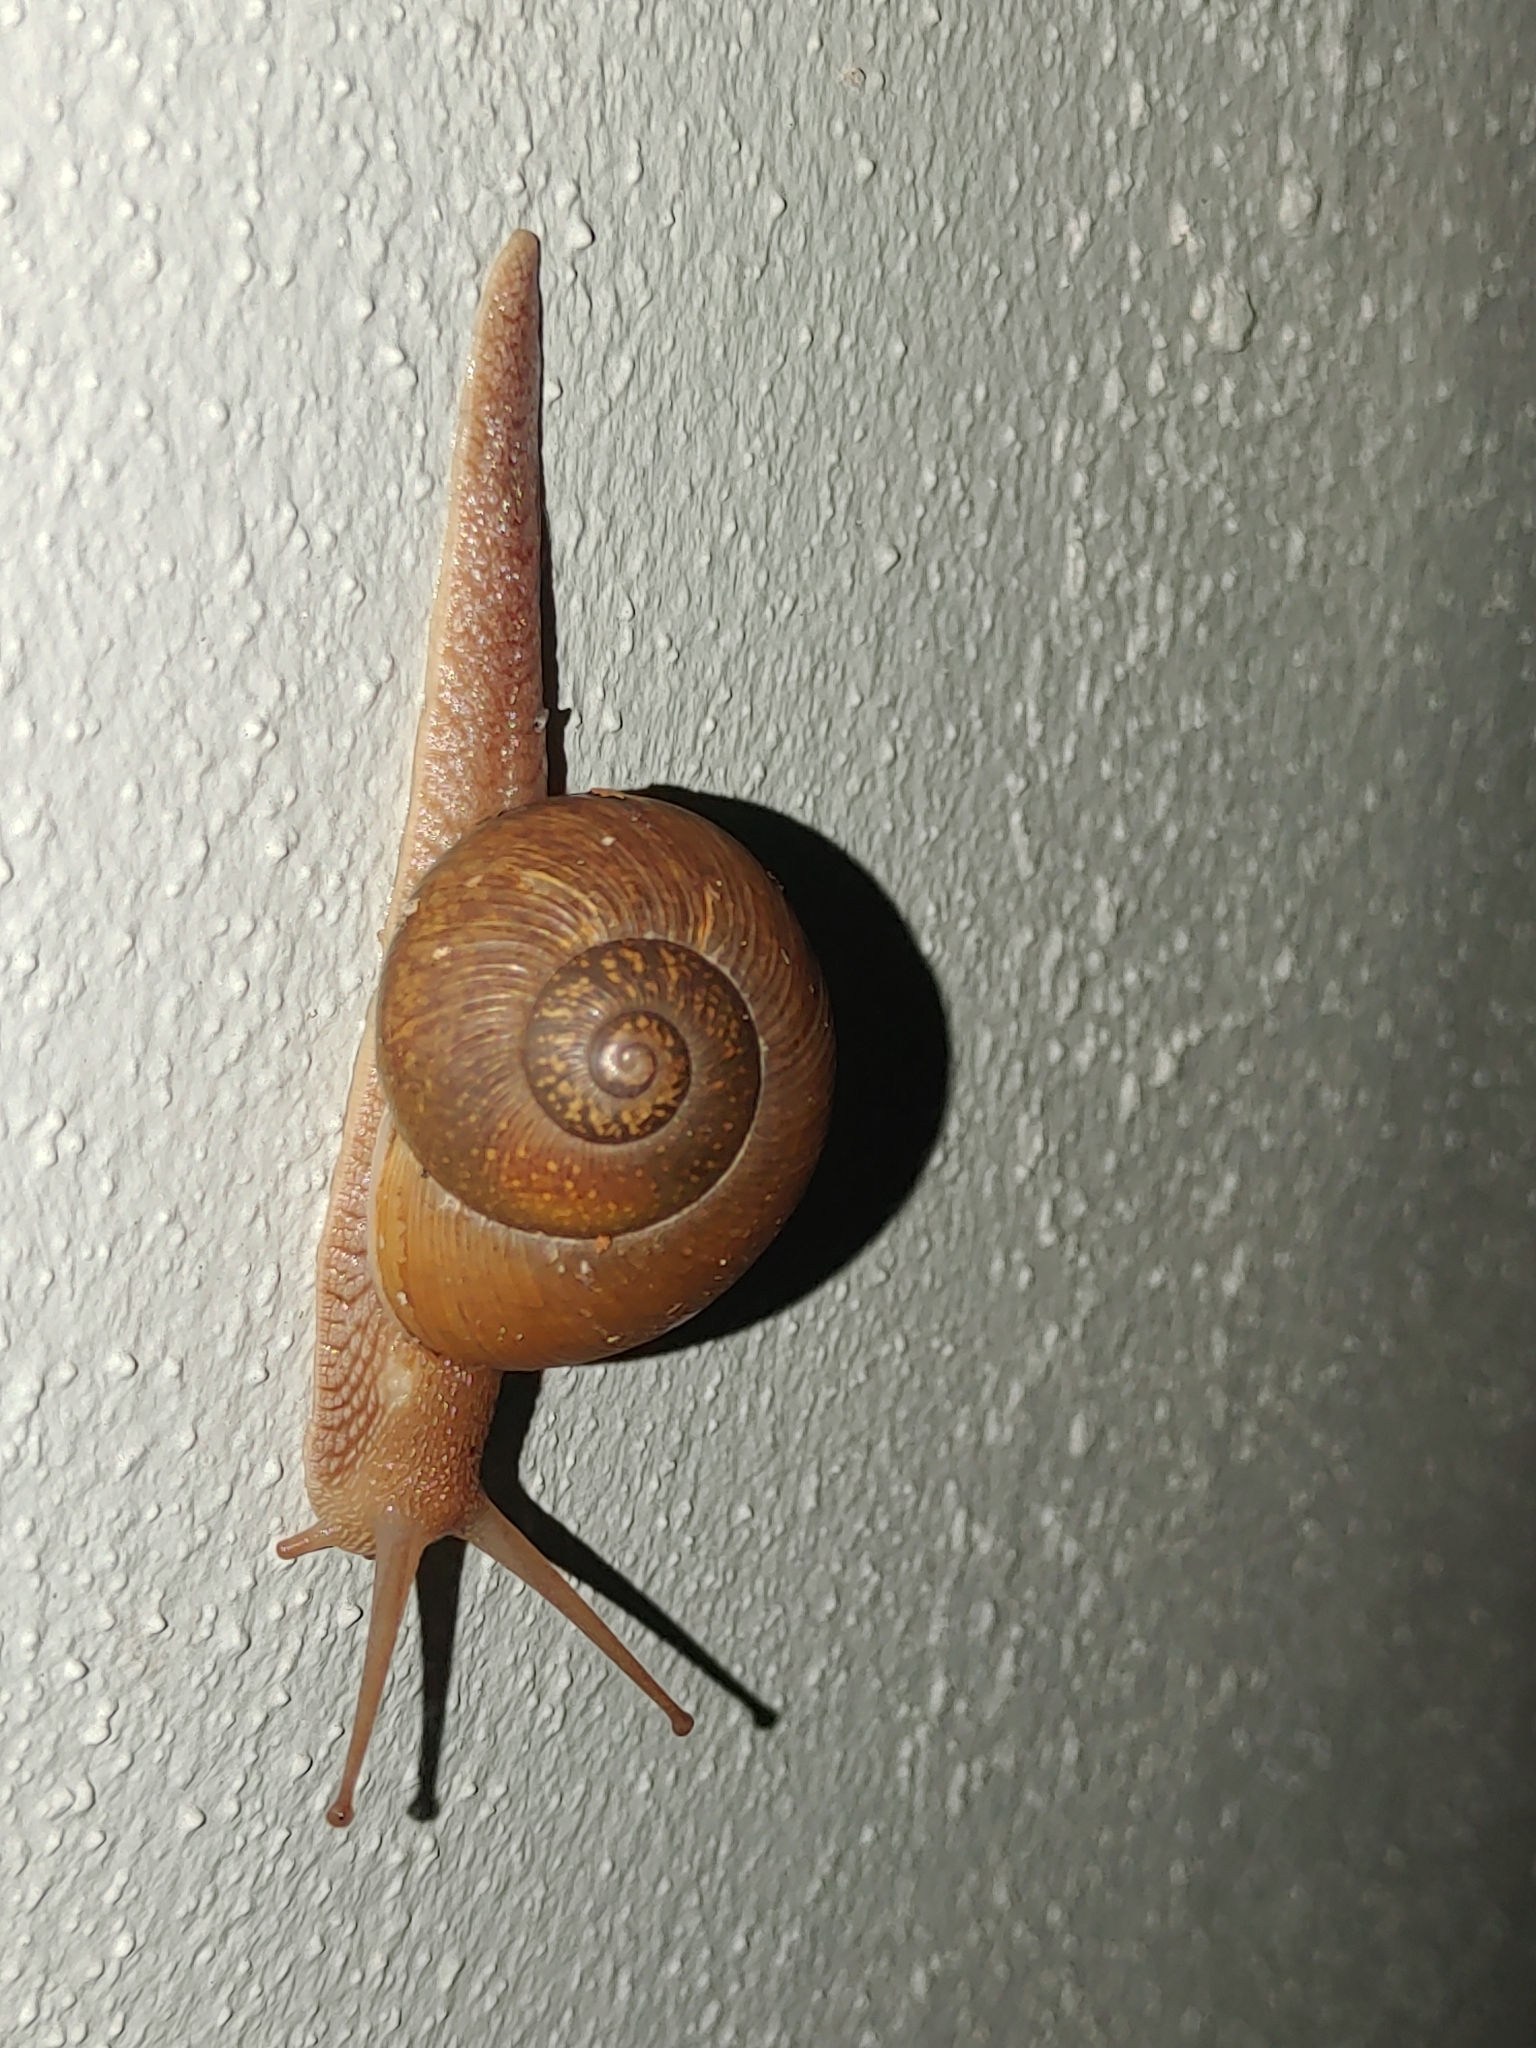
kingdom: Animalia
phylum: Mollusca
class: Gastropoda
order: Stylommatophora
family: Zachrysiidae
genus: Zachrysia
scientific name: Zachrysia provisoria
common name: Garden zachrysia
